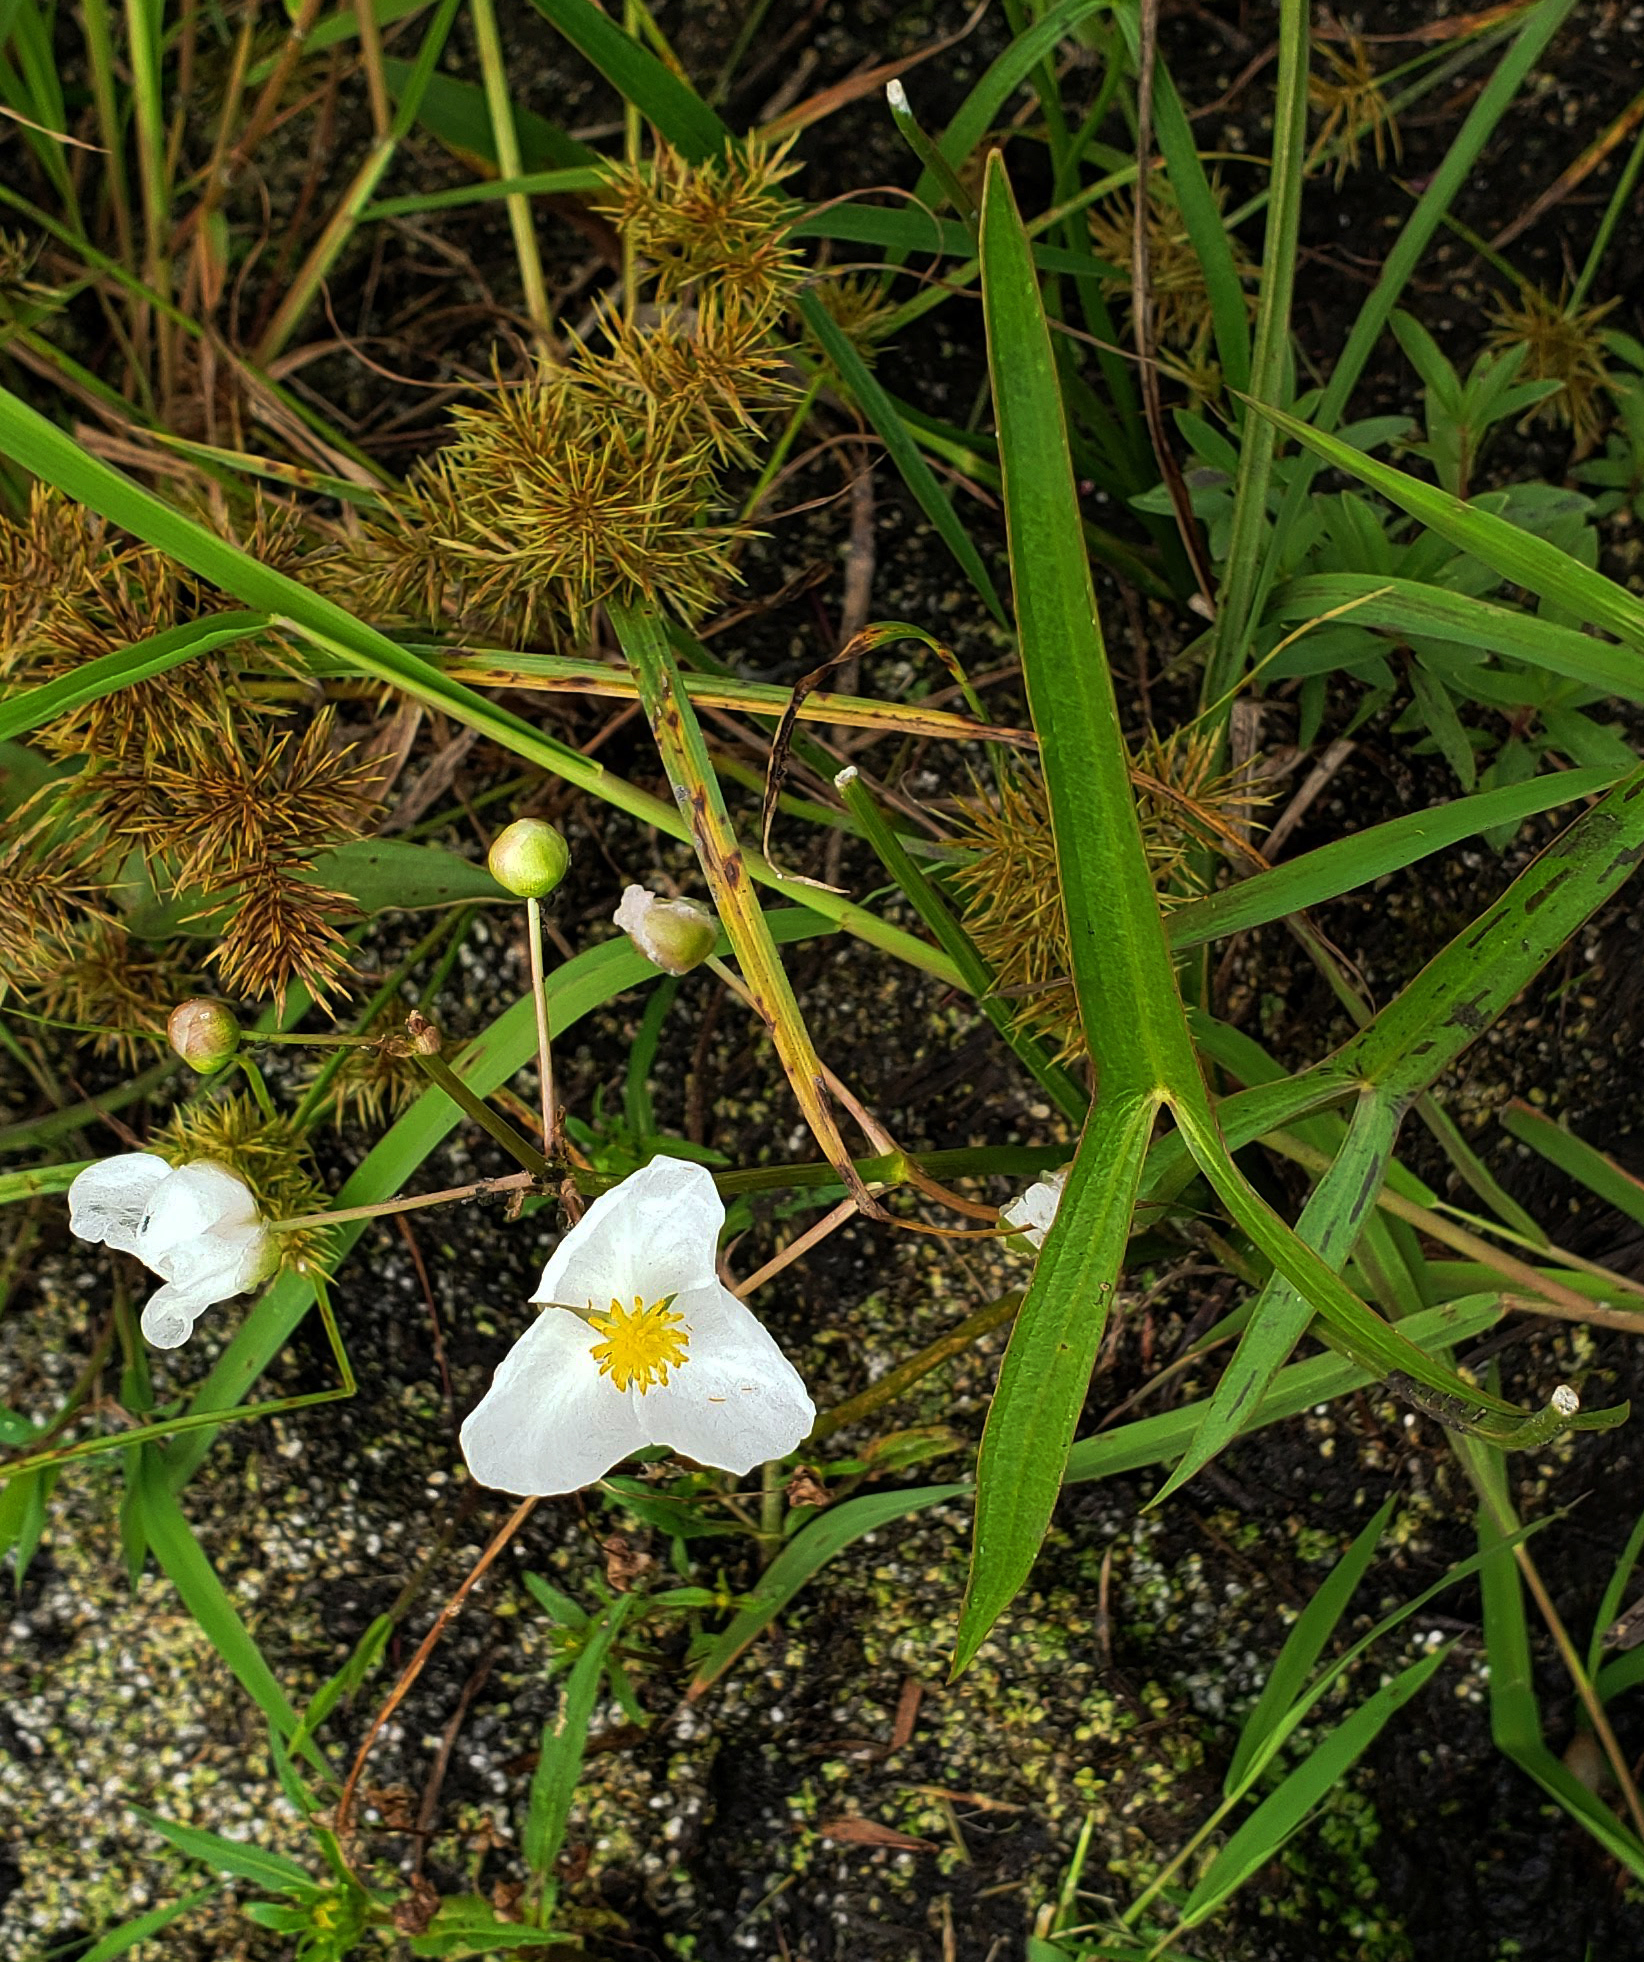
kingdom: Plantae
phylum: Tracheophyta
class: Liliopsida
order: Alismatales
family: Alismataceae
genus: Sagittaria
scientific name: Sagittaria latifolia
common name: Duck-potato
